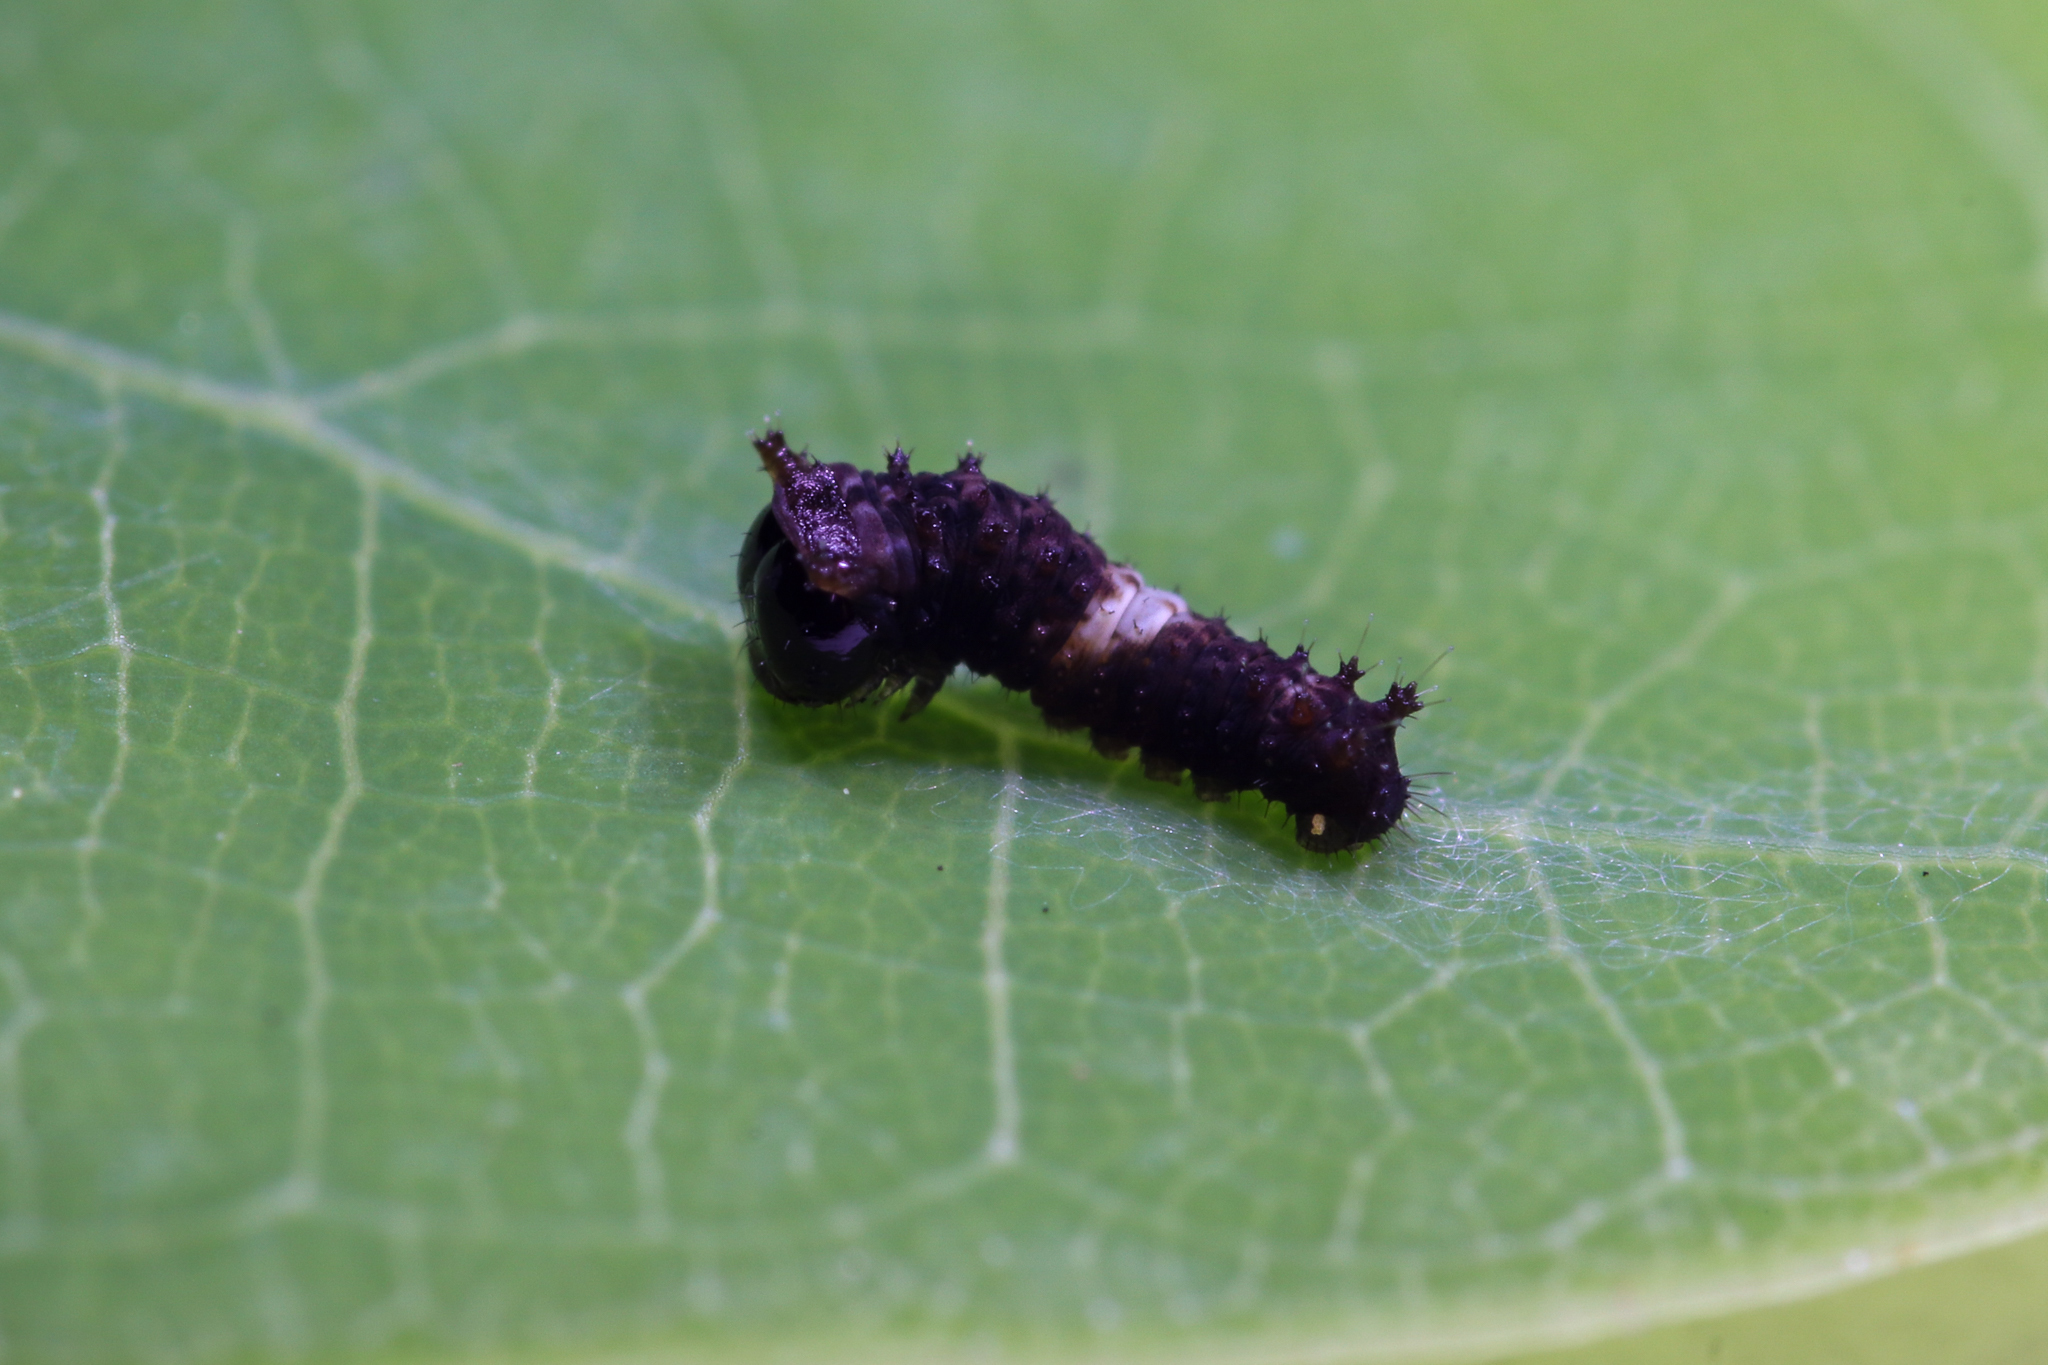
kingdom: Animalia
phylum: Arthropoda
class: Insecta
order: Lepidoptera
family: Papilionidae
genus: Papilio
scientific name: Papilio glaucus
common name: Tiger swallowtail
